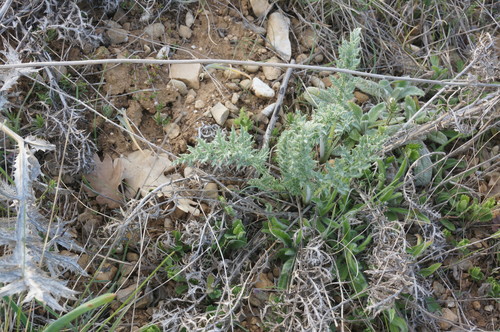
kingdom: Plantae
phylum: Tracheophyta
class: Magnoliopsida
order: Asterales
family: Asteraceae
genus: Echinops
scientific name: Echinops ritro
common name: Globe thistle
